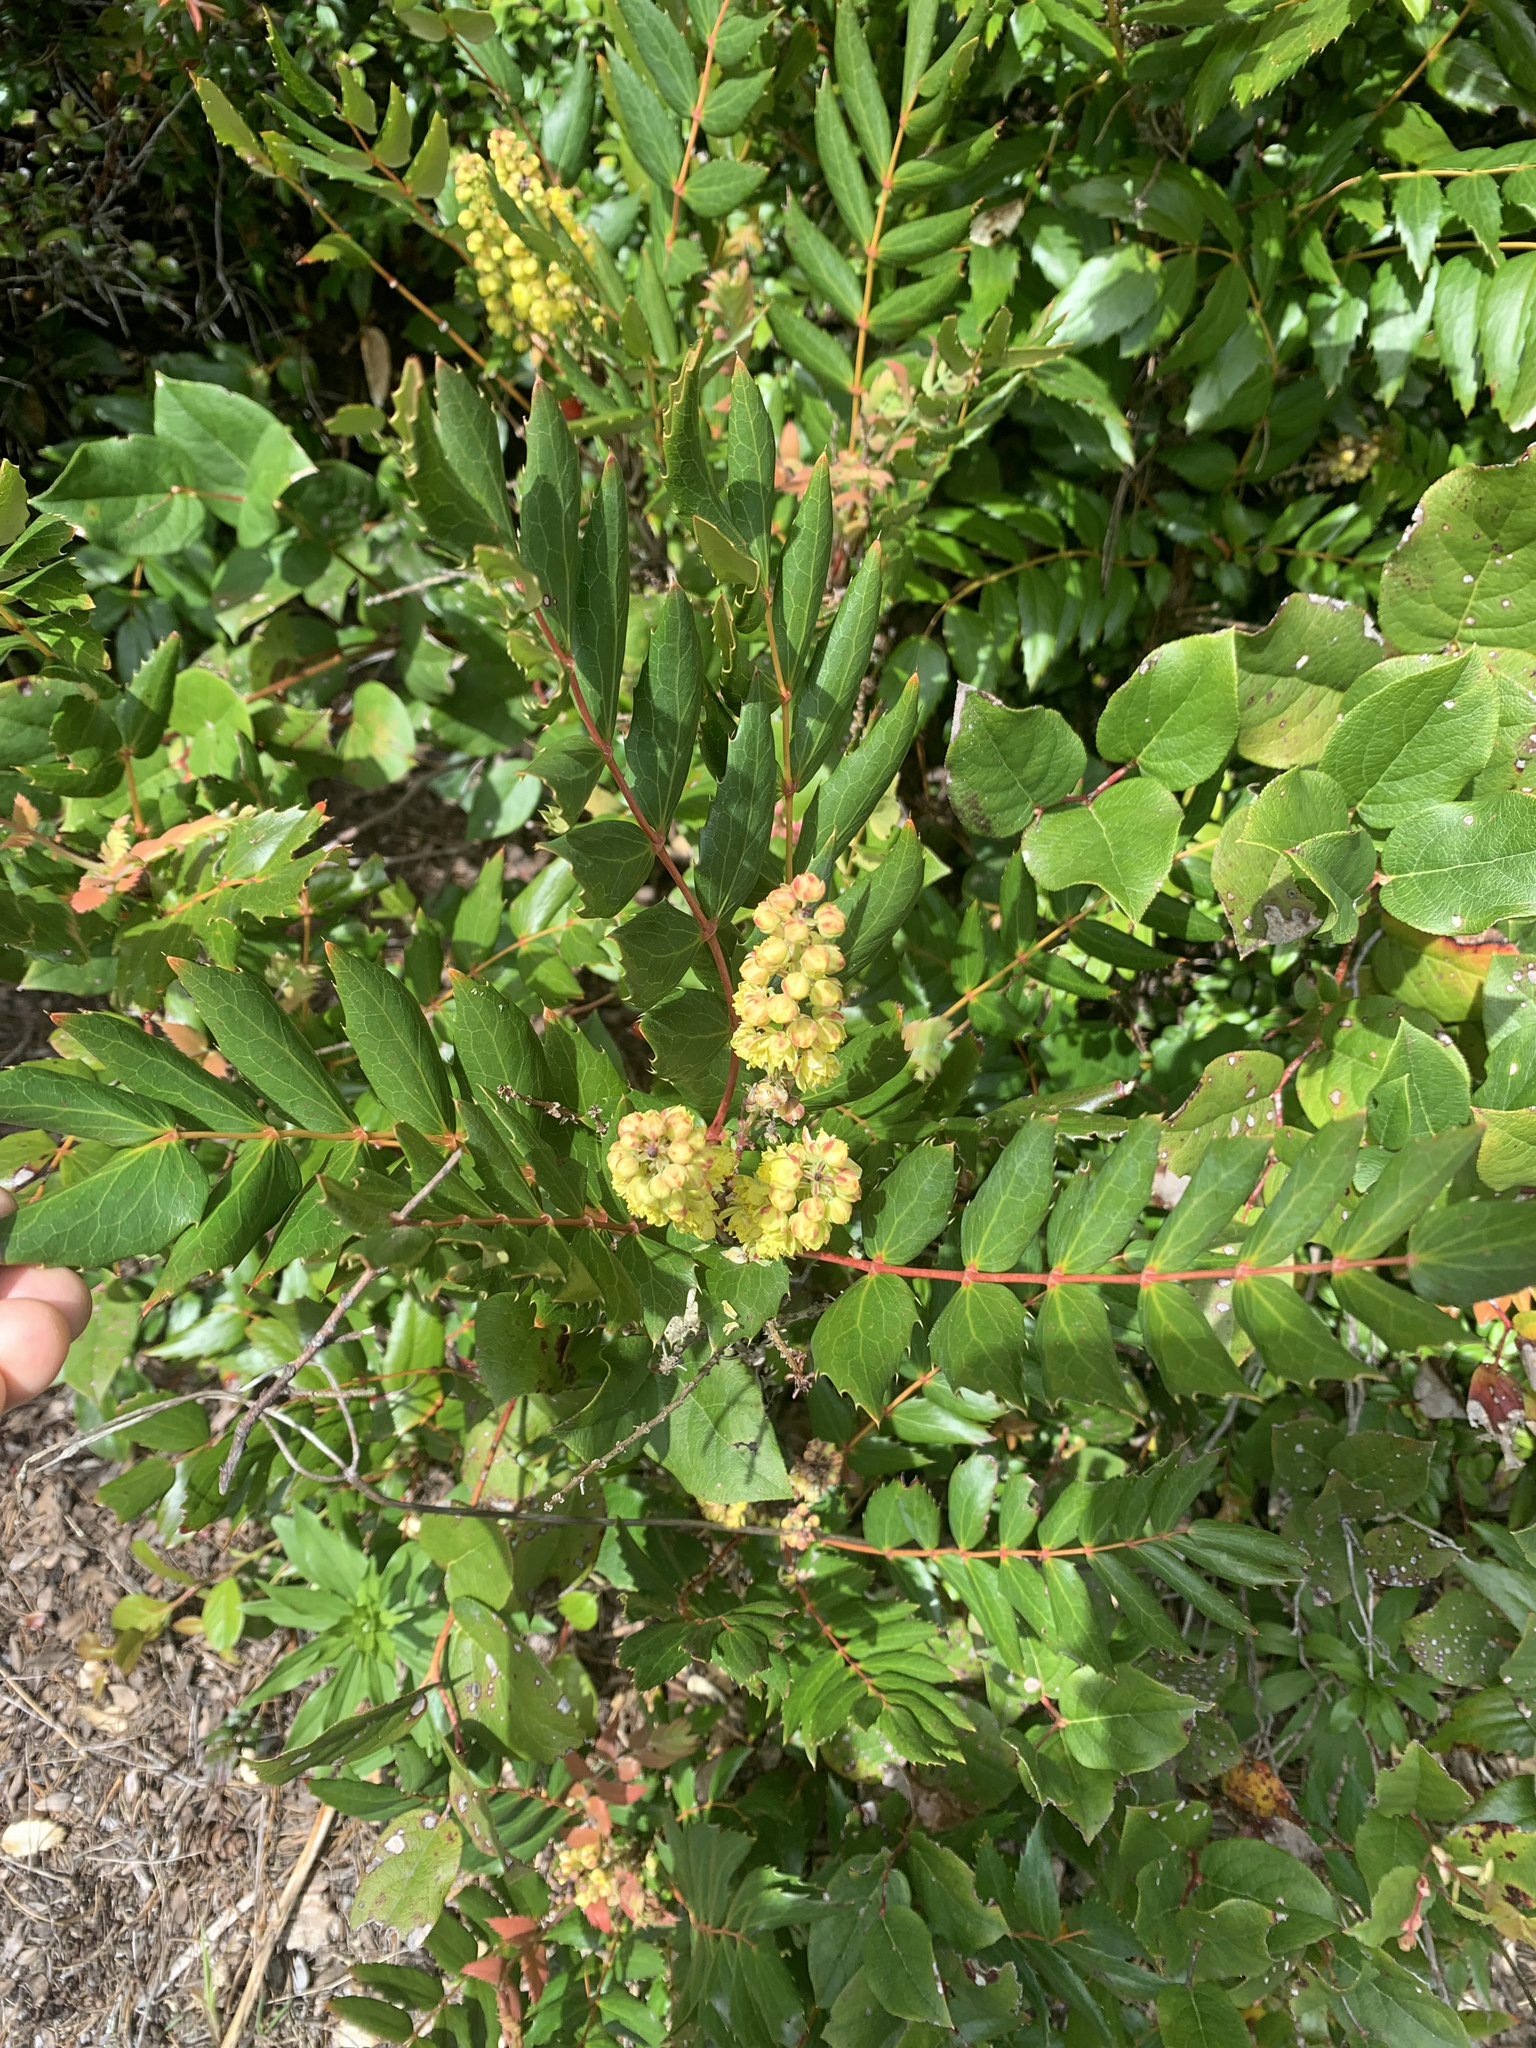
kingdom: Plantae
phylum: Tracheophyta
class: Magnoliopsida
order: Ranunculales
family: Berberidaceae
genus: Mahonia
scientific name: Mahonia nervosa
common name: Cascade oregon-grape
